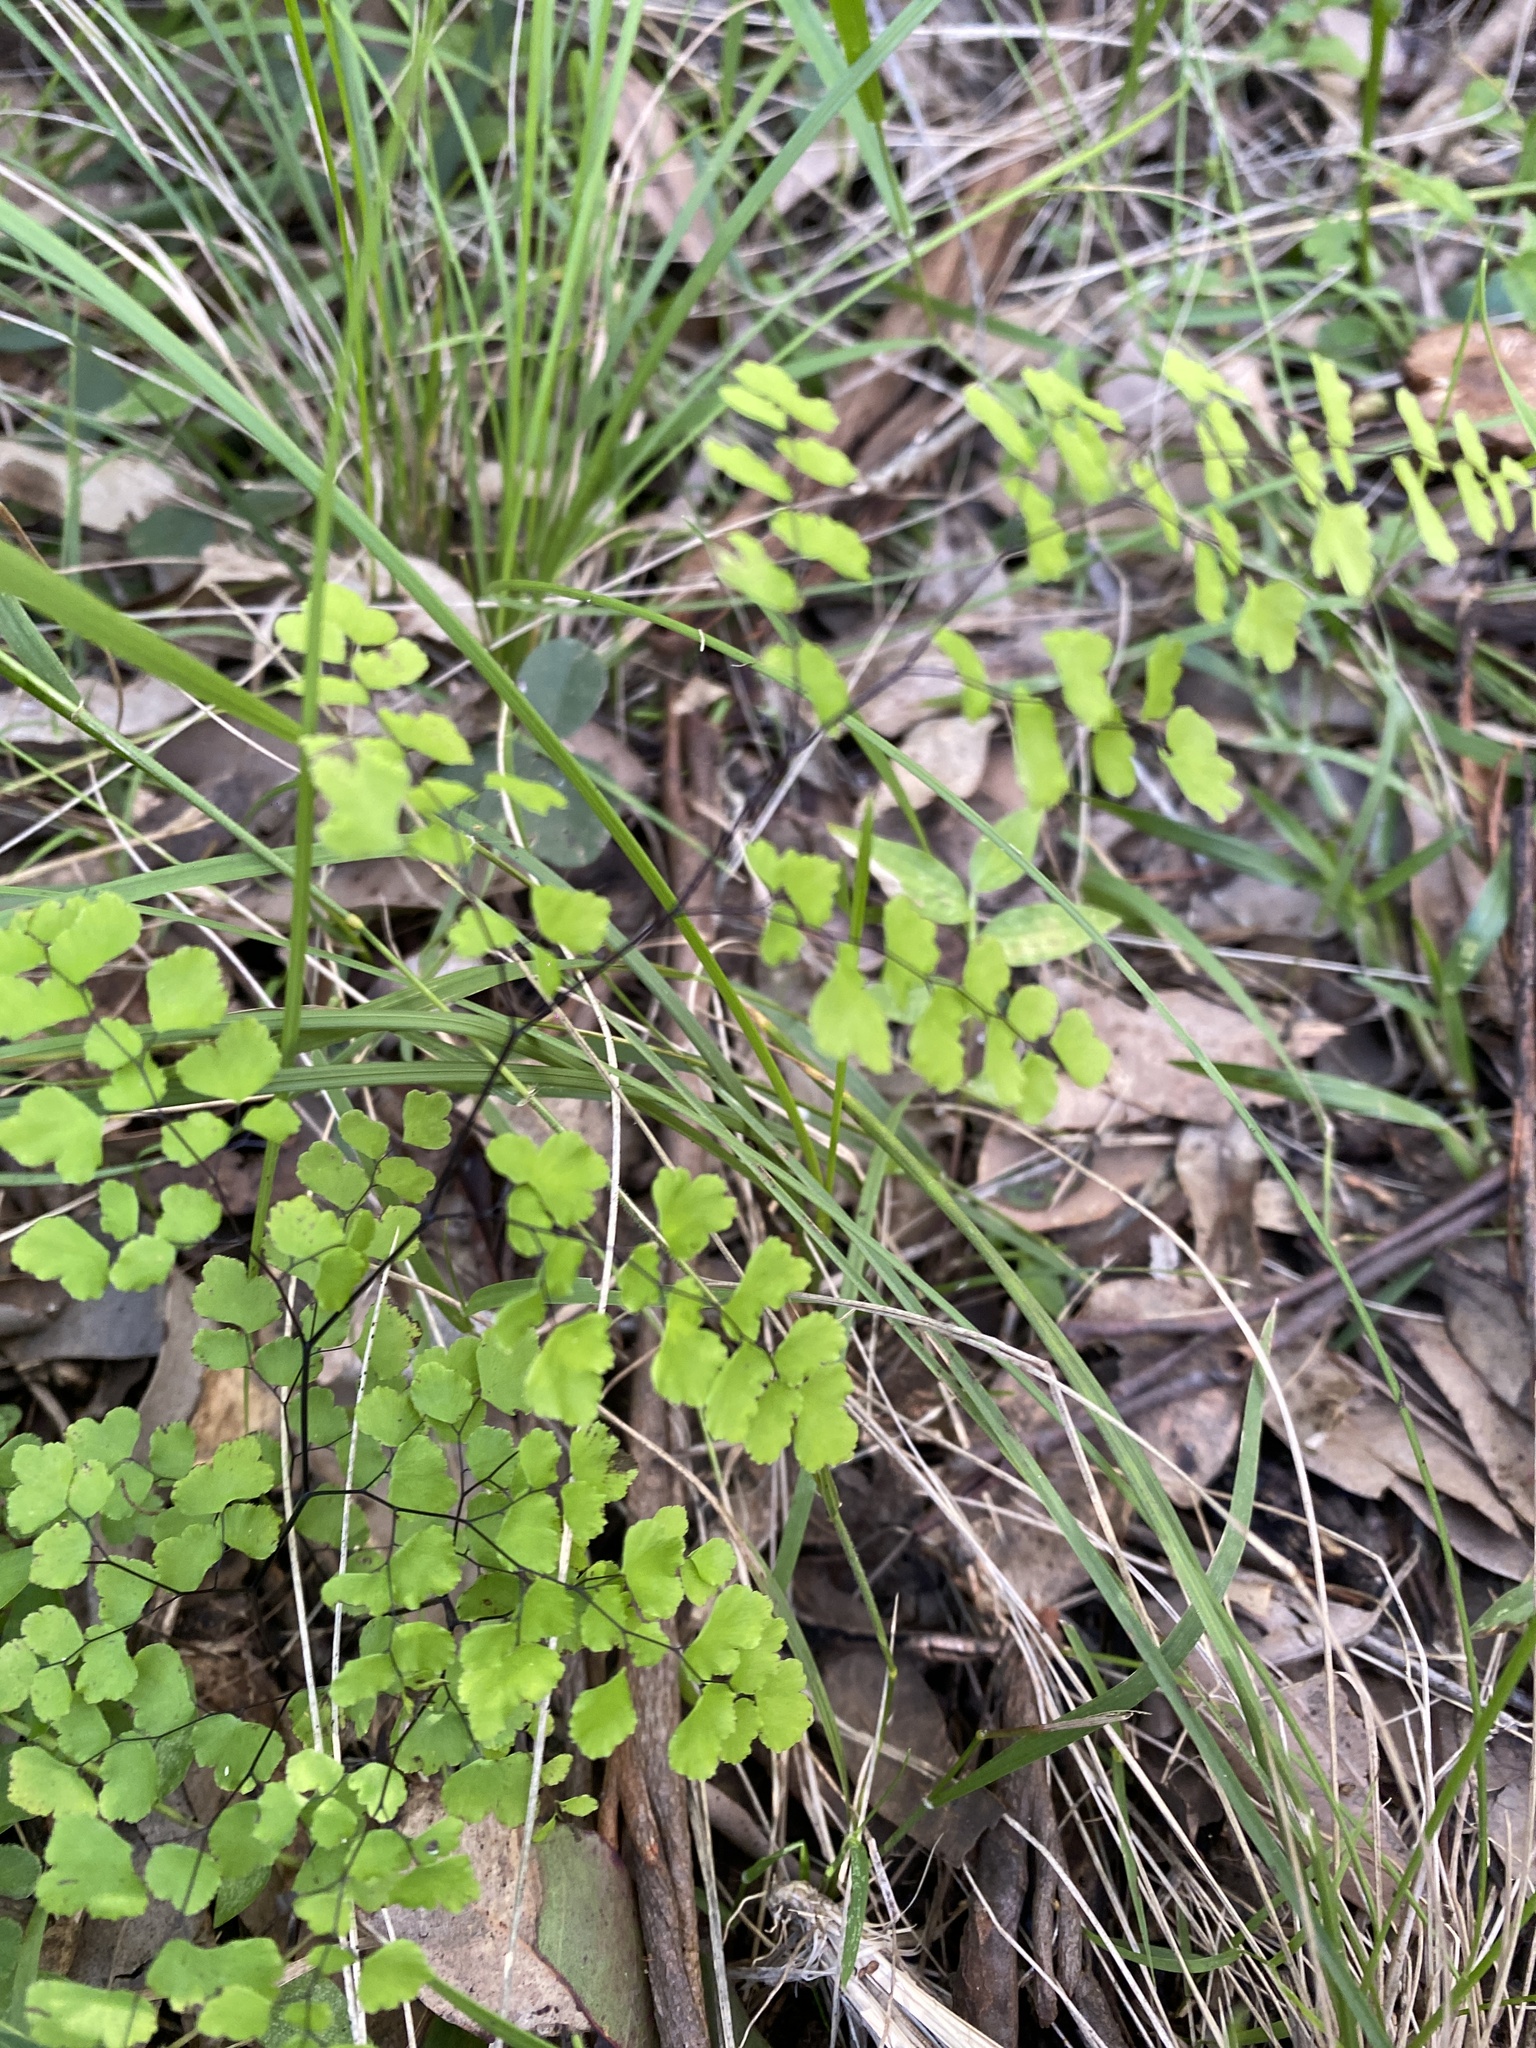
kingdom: Plantae
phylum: Tracheophyta
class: Polypodiopsida
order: Polypodiales
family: Pteridaceae
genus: Adiantum
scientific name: Adiantum atroviride
